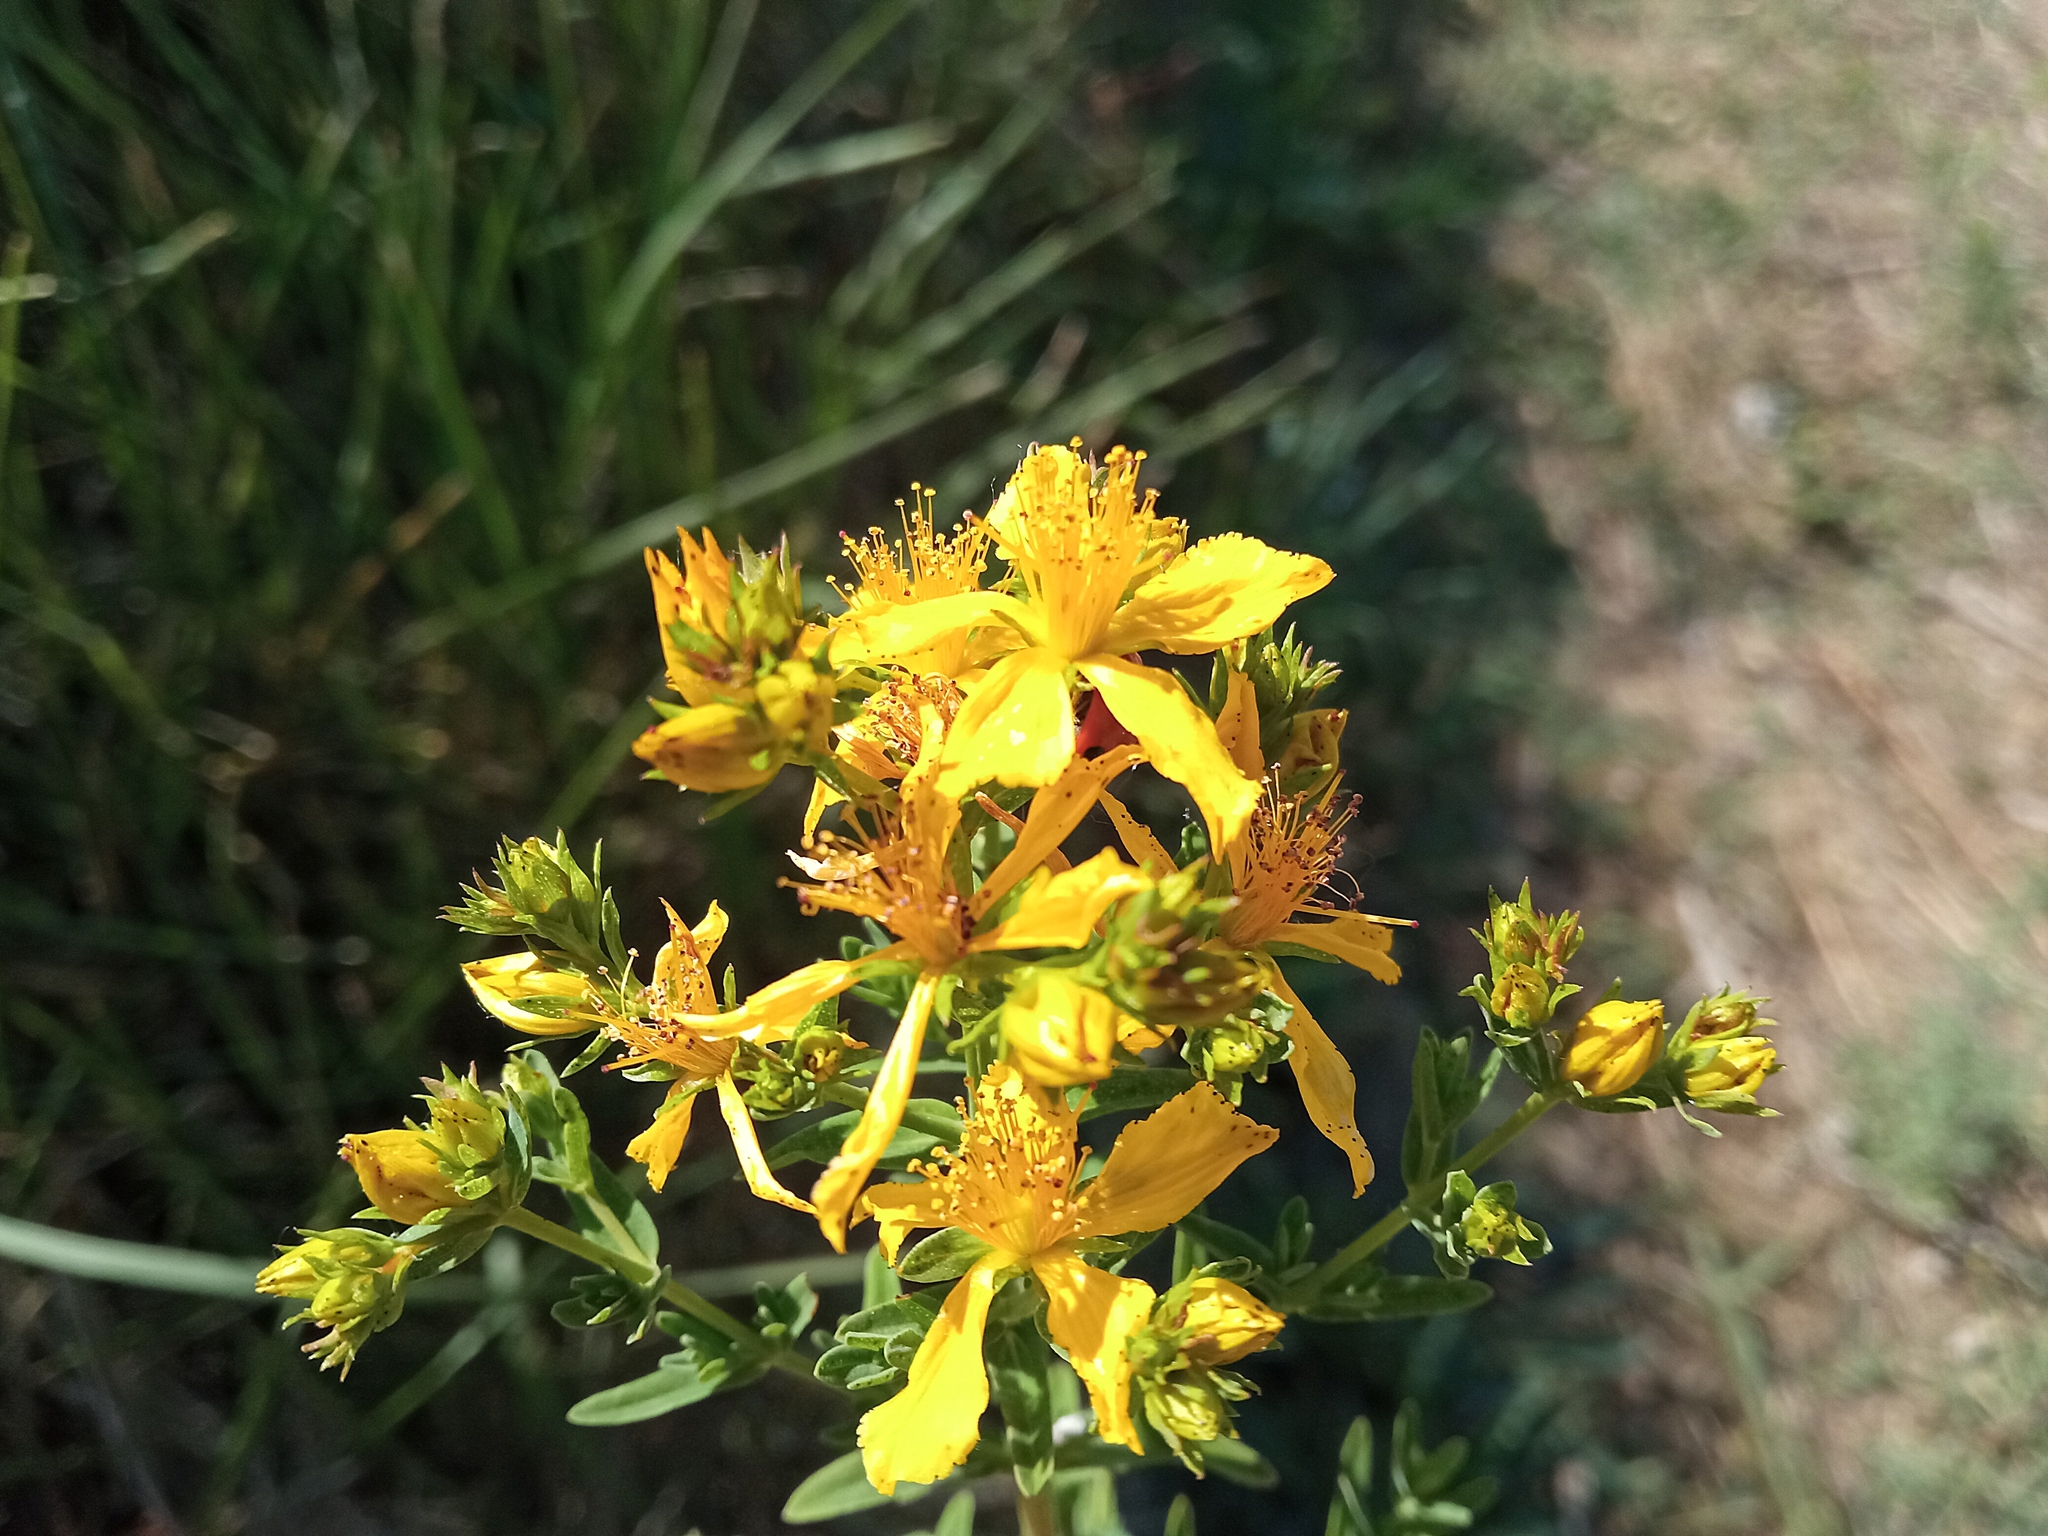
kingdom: Plantae
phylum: Tracheophyta
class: Magnoliopsida
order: Malpighiales
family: Hypericaceae
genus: Hypericum
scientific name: Hypericum perforatum
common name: Common st. johnswort
